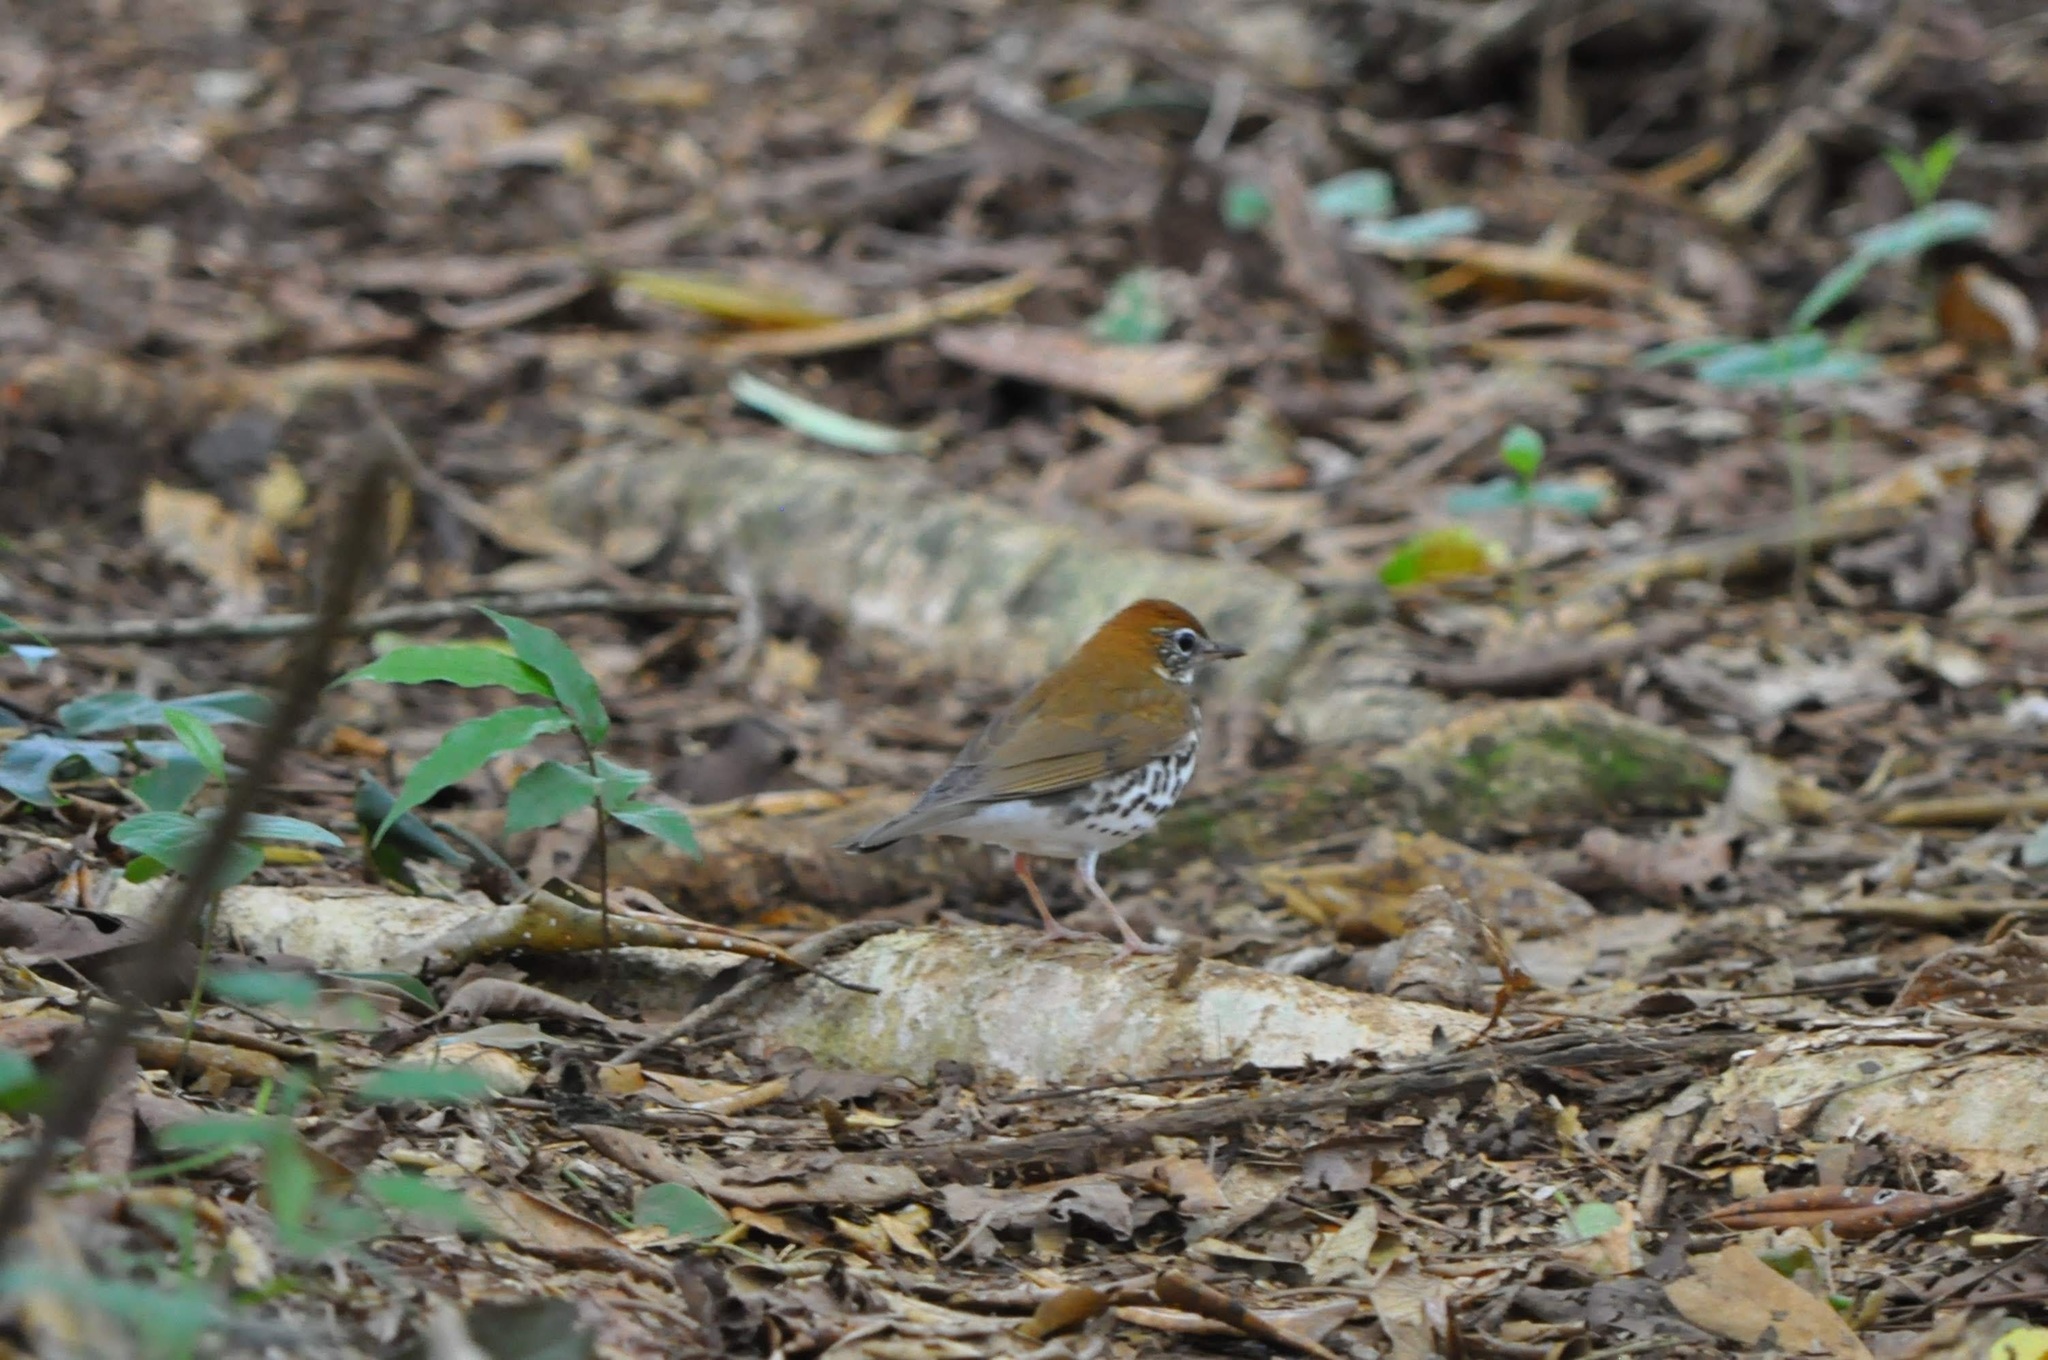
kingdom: Animalia
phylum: Chordata
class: Aves
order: Passeriformes
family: Turdidae
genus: Hylocichla
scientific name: Hylocichla mustelina
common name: Wood thrush
